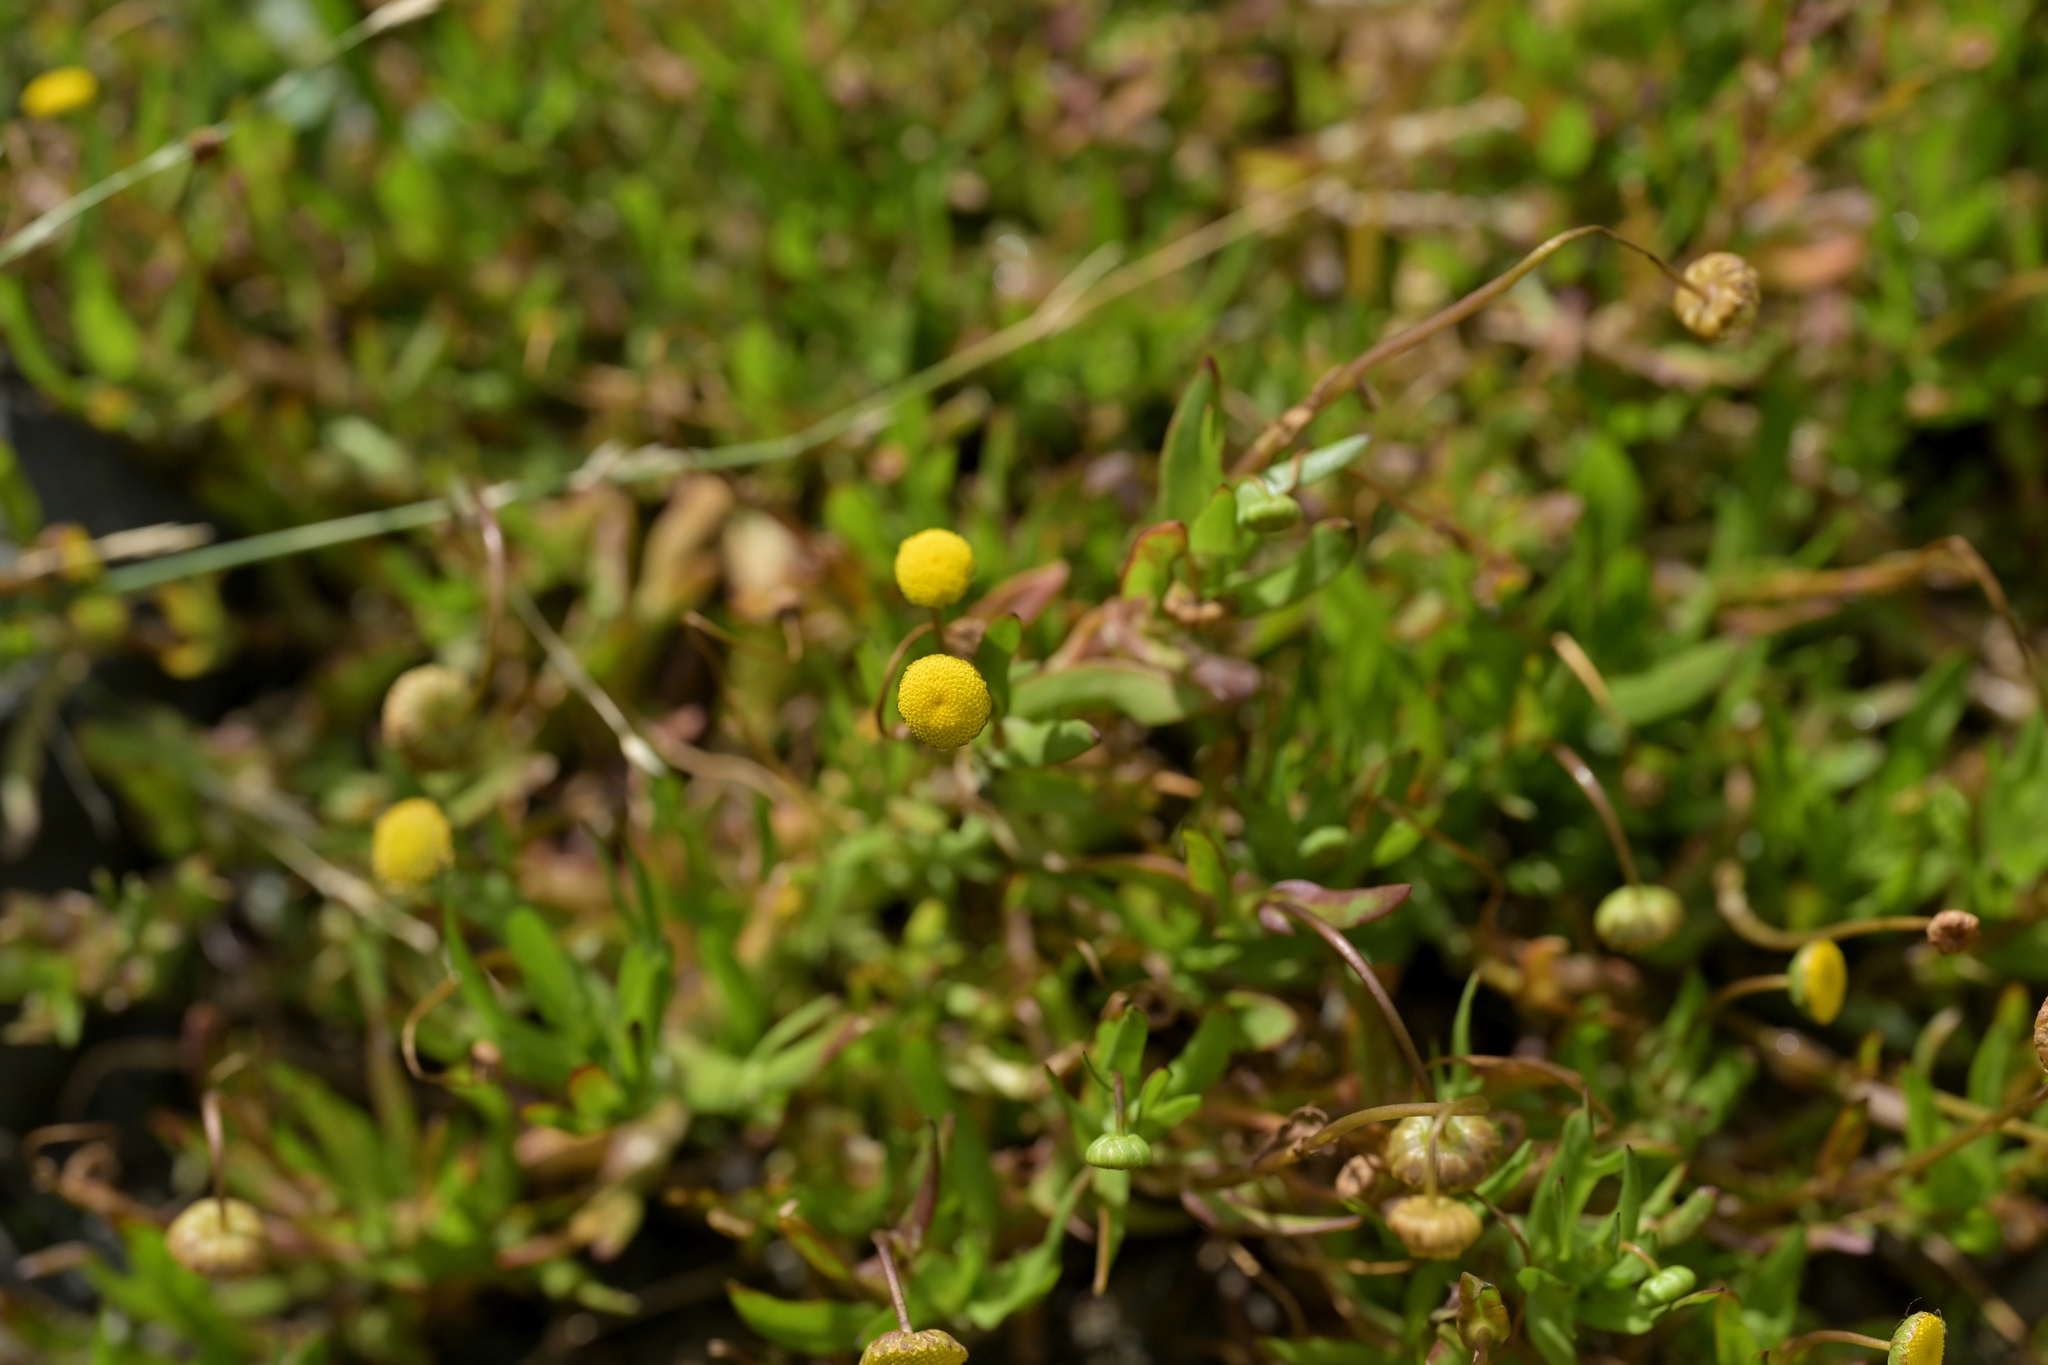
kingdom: Plantae
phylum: Tracheophyta
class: Magnoliopsida
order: Asterales
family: Asteraceae
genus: Cotula
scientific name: Cotula coronopifolia
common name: Buttonweed
